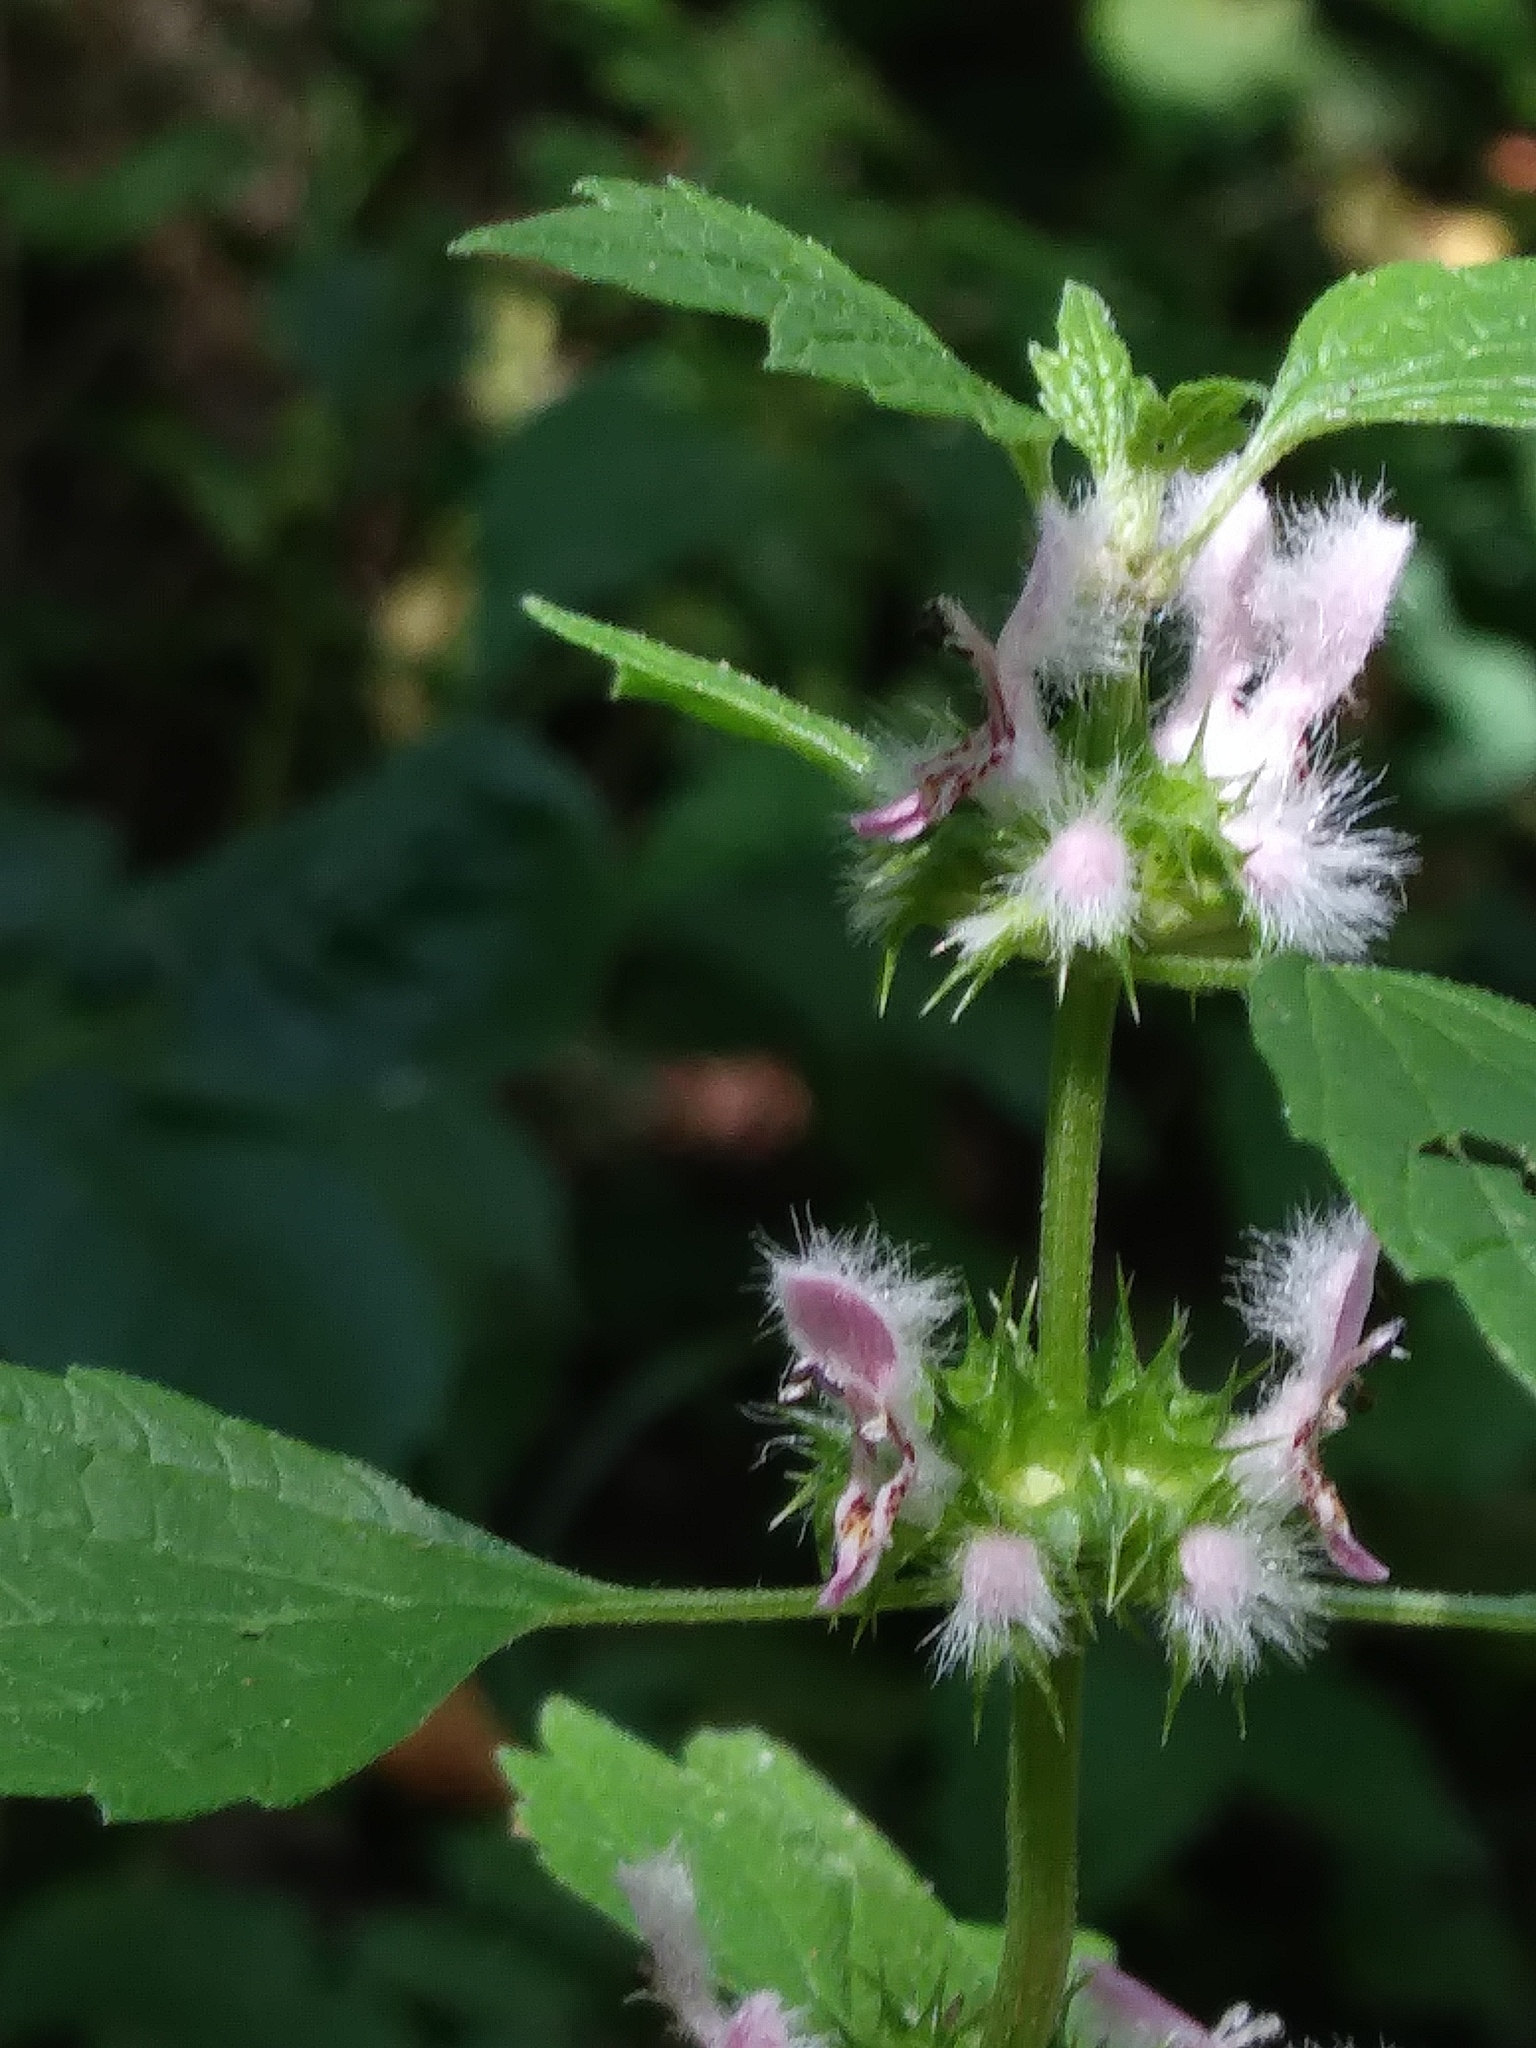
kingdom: Plantae
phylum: Tracheophyta
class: Magnoliopsida
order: Lamiales
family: Lamiaceae
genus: Leonurus
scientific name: Leonurus cardiaca
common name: Motherwort
